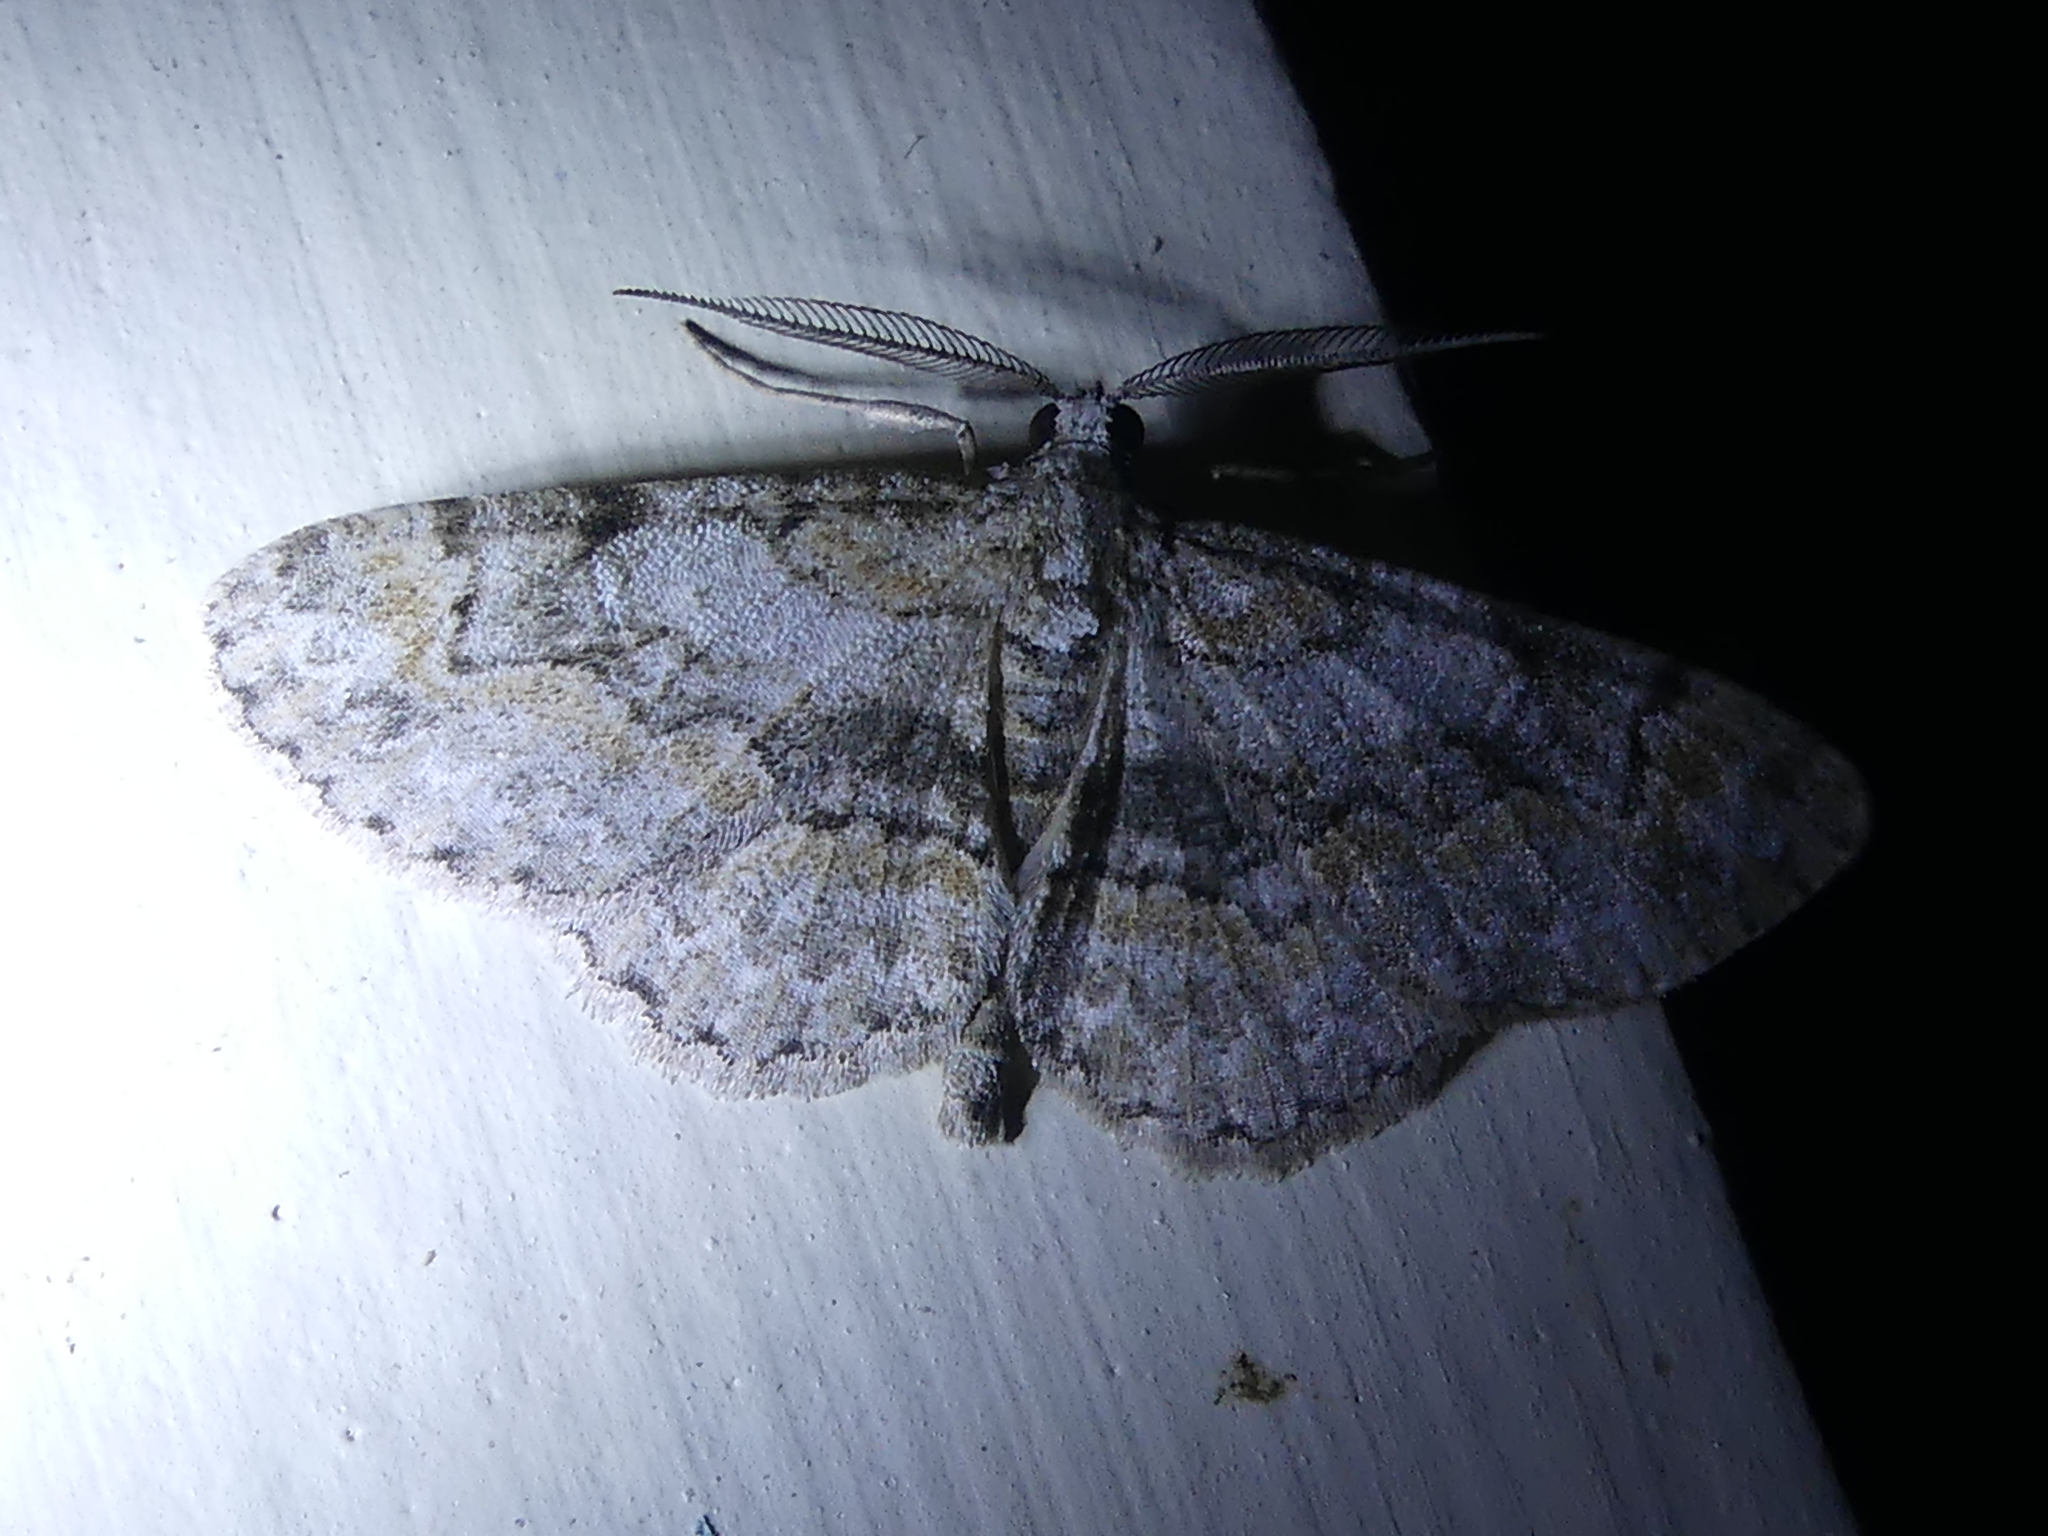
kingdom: Animalia
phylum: Arthropoda
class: Insecta
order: Lepidoptera
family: Geometridae
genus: Iridopsis
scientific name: Iridopsis ephyraria
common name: Pale-winged gray
